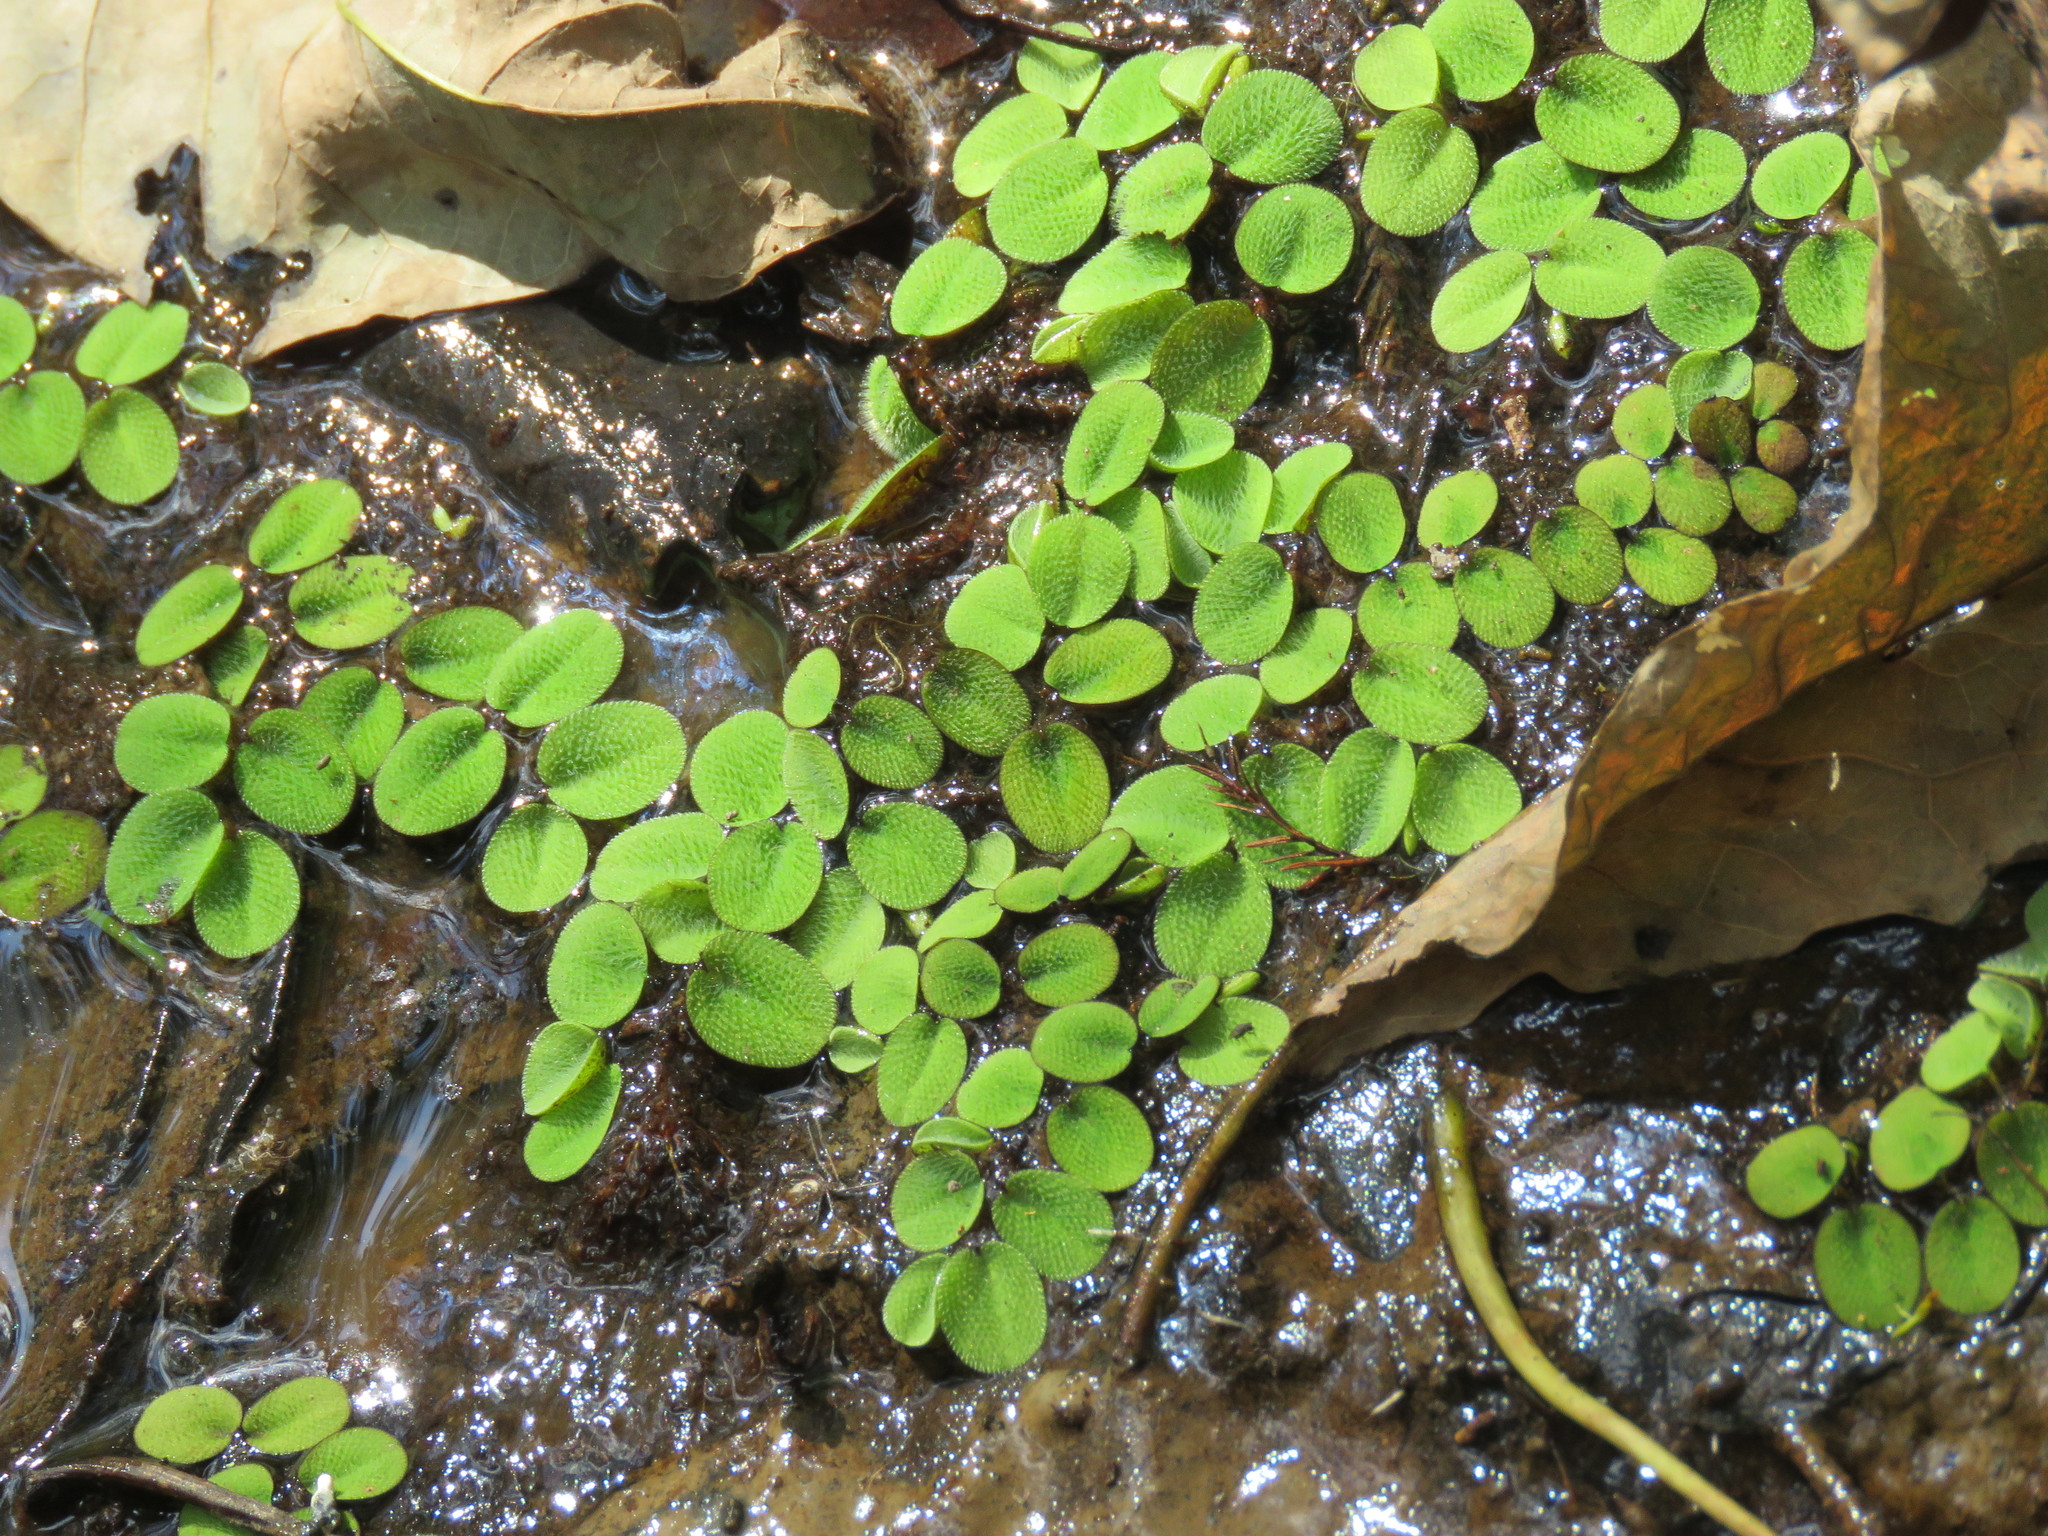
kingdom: Plantae
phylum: Tracheophyta
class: Polypodiopsida
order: Salviniales
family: Salviniaceae
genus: Salvinia
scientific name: Salvinia minima
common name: Water spangles
